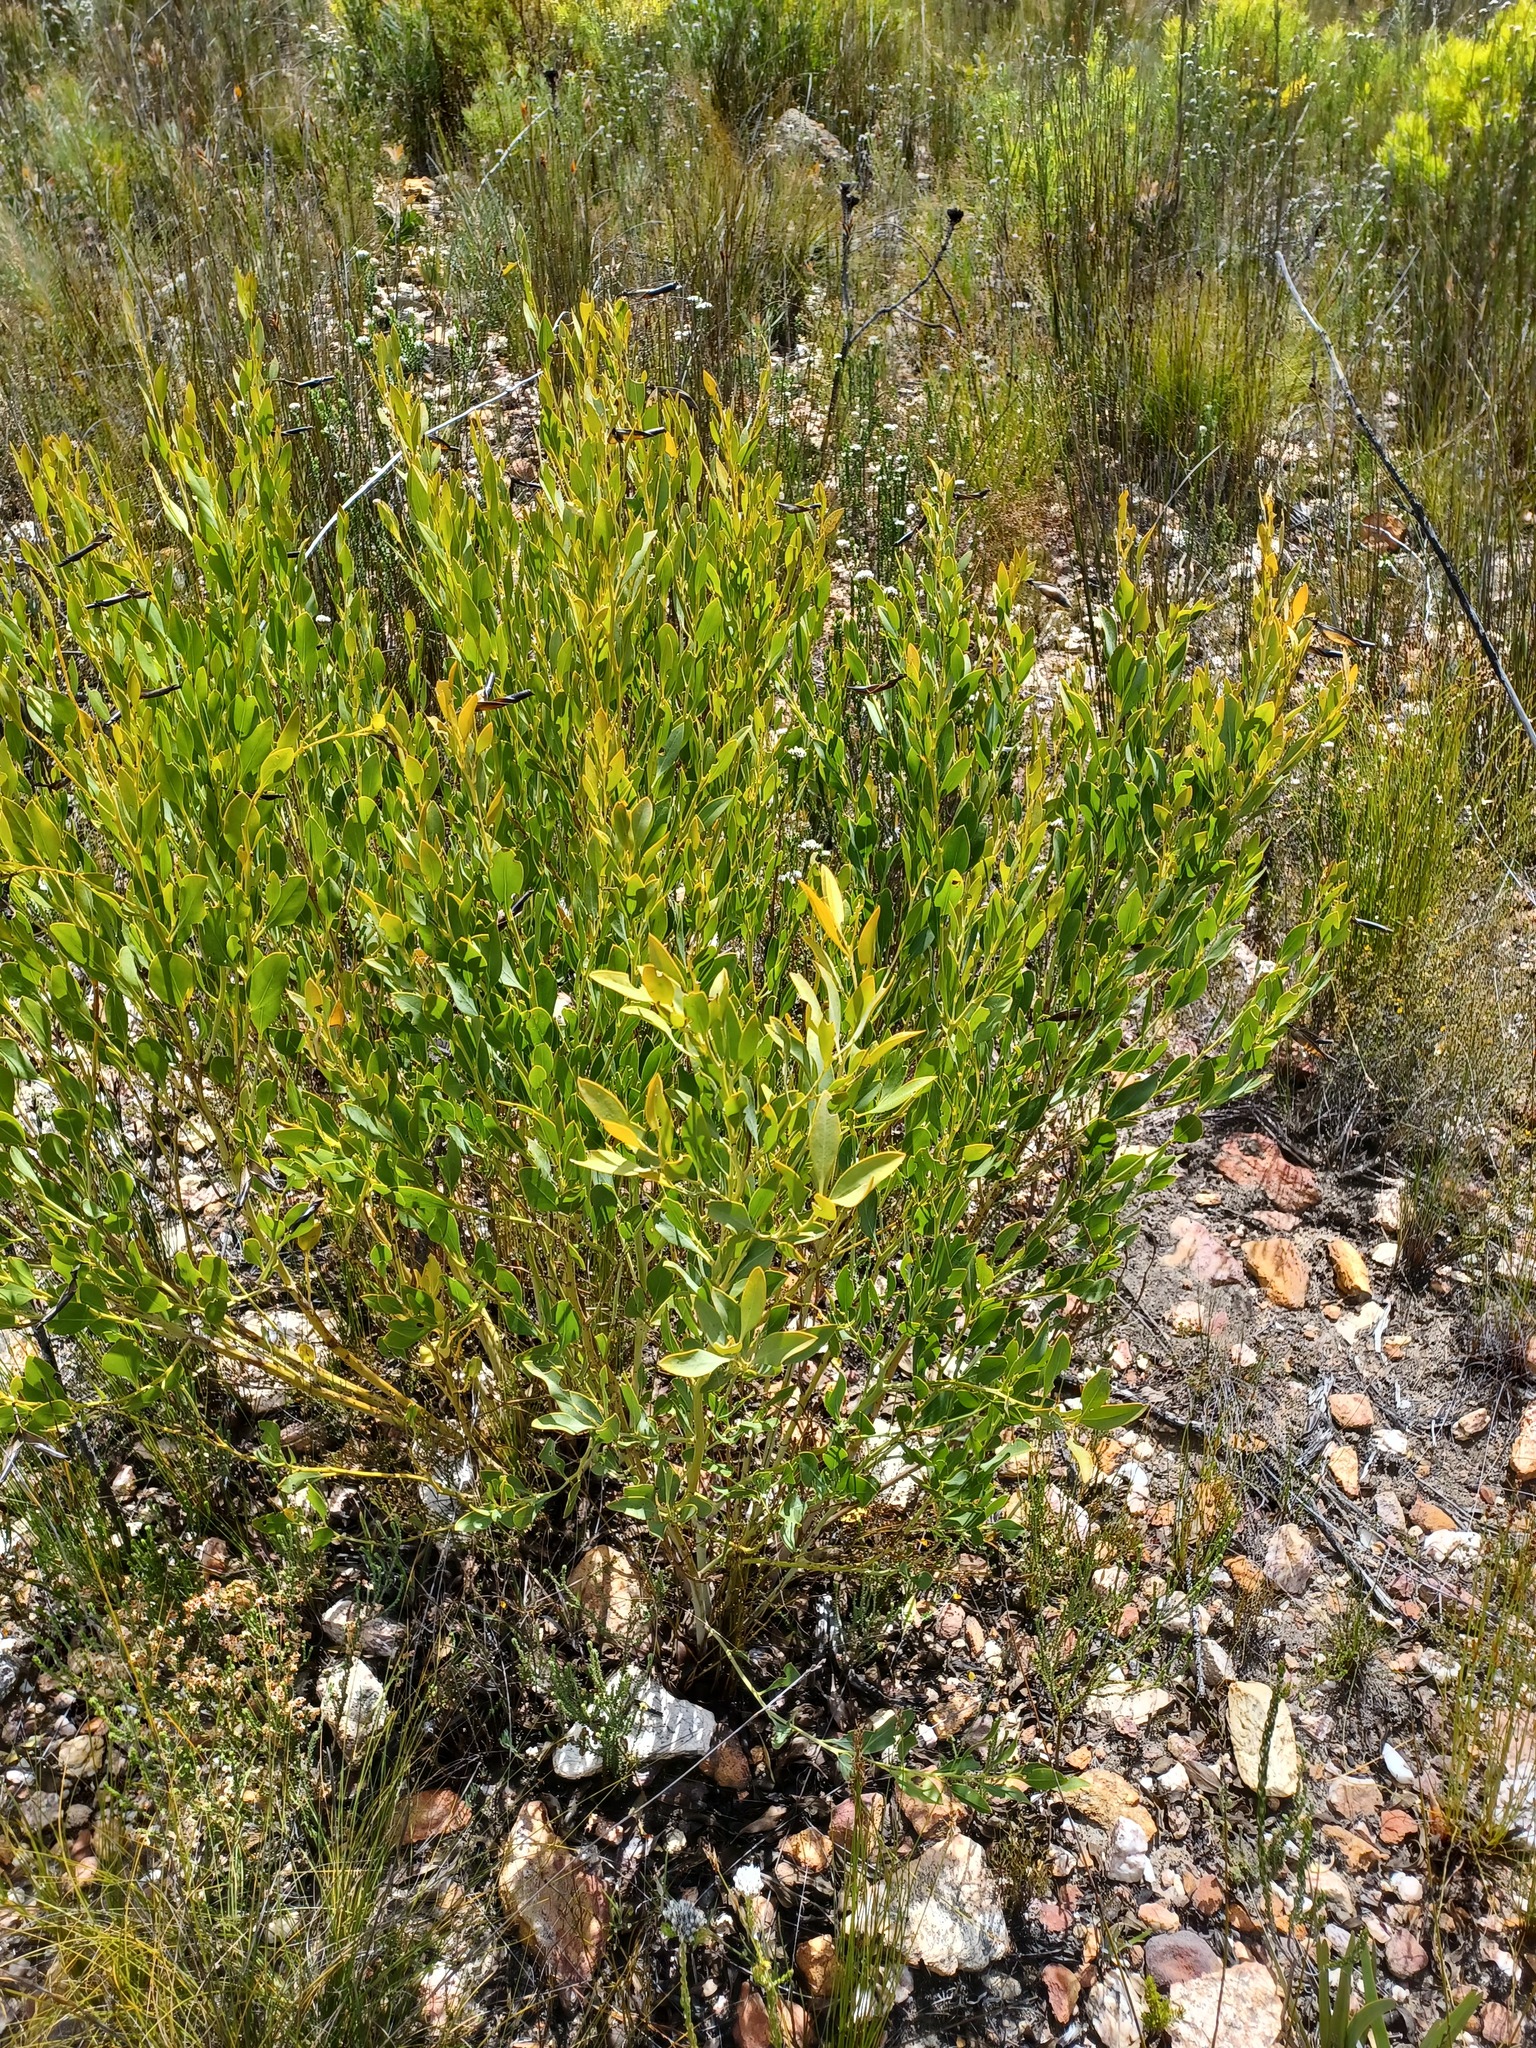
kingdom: Plantae
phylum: Tracheophyta
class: Magnoliopsida
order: Fabales
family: Fabaceae
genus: Rafnia
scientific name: Rafnia vlokii
